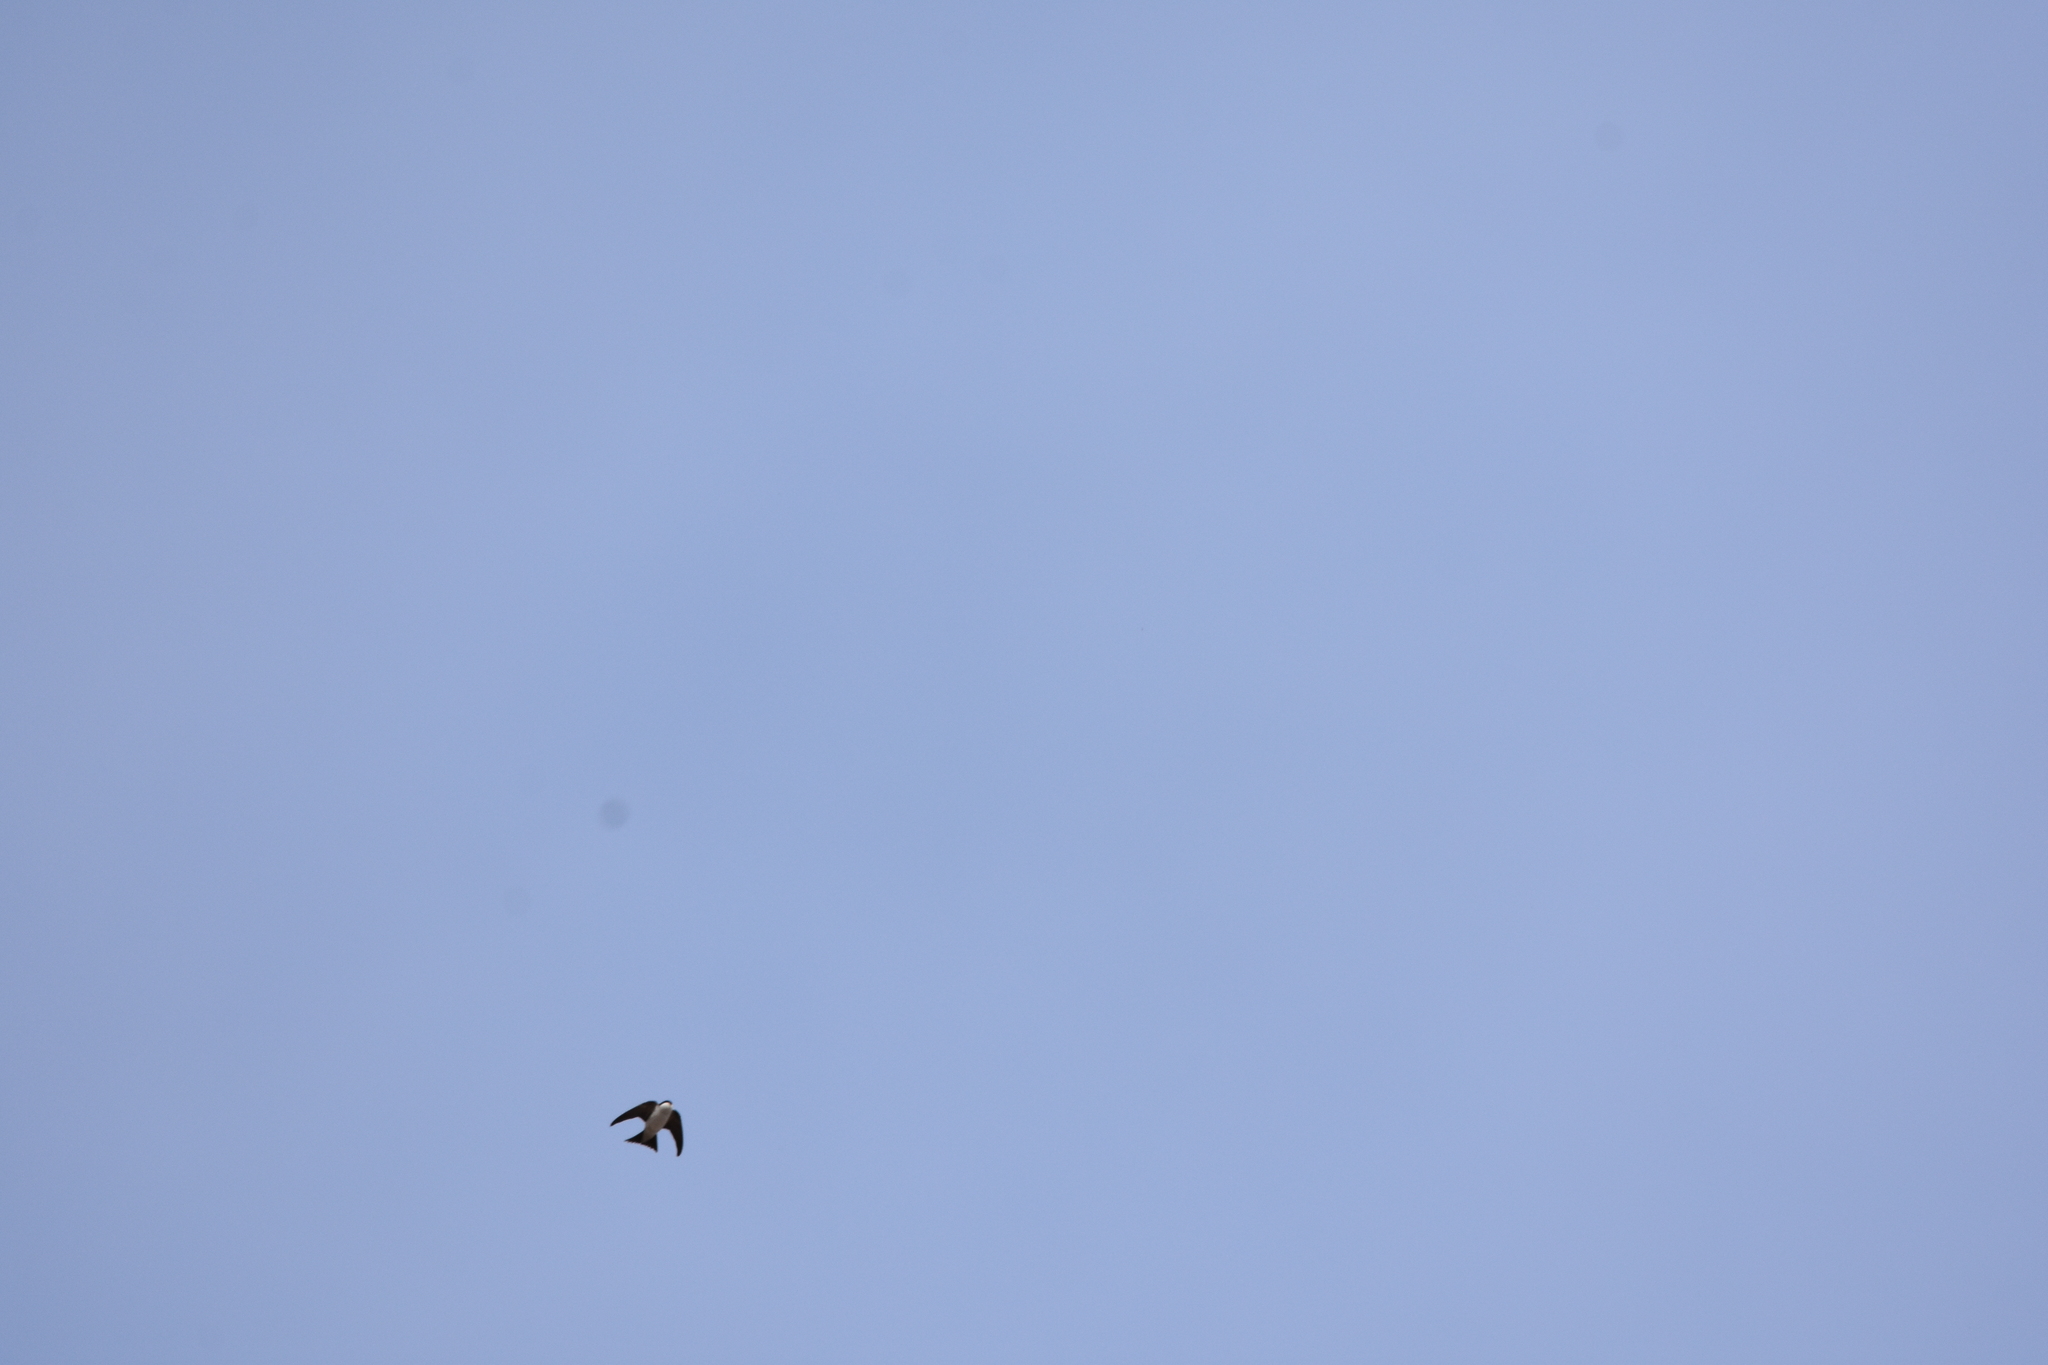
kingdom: Animalia
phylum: Chordata
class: Aves
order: Passeriformes
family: Hirundinidae
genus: Delichon
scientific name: Delichon urbicum
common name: Common house martin
